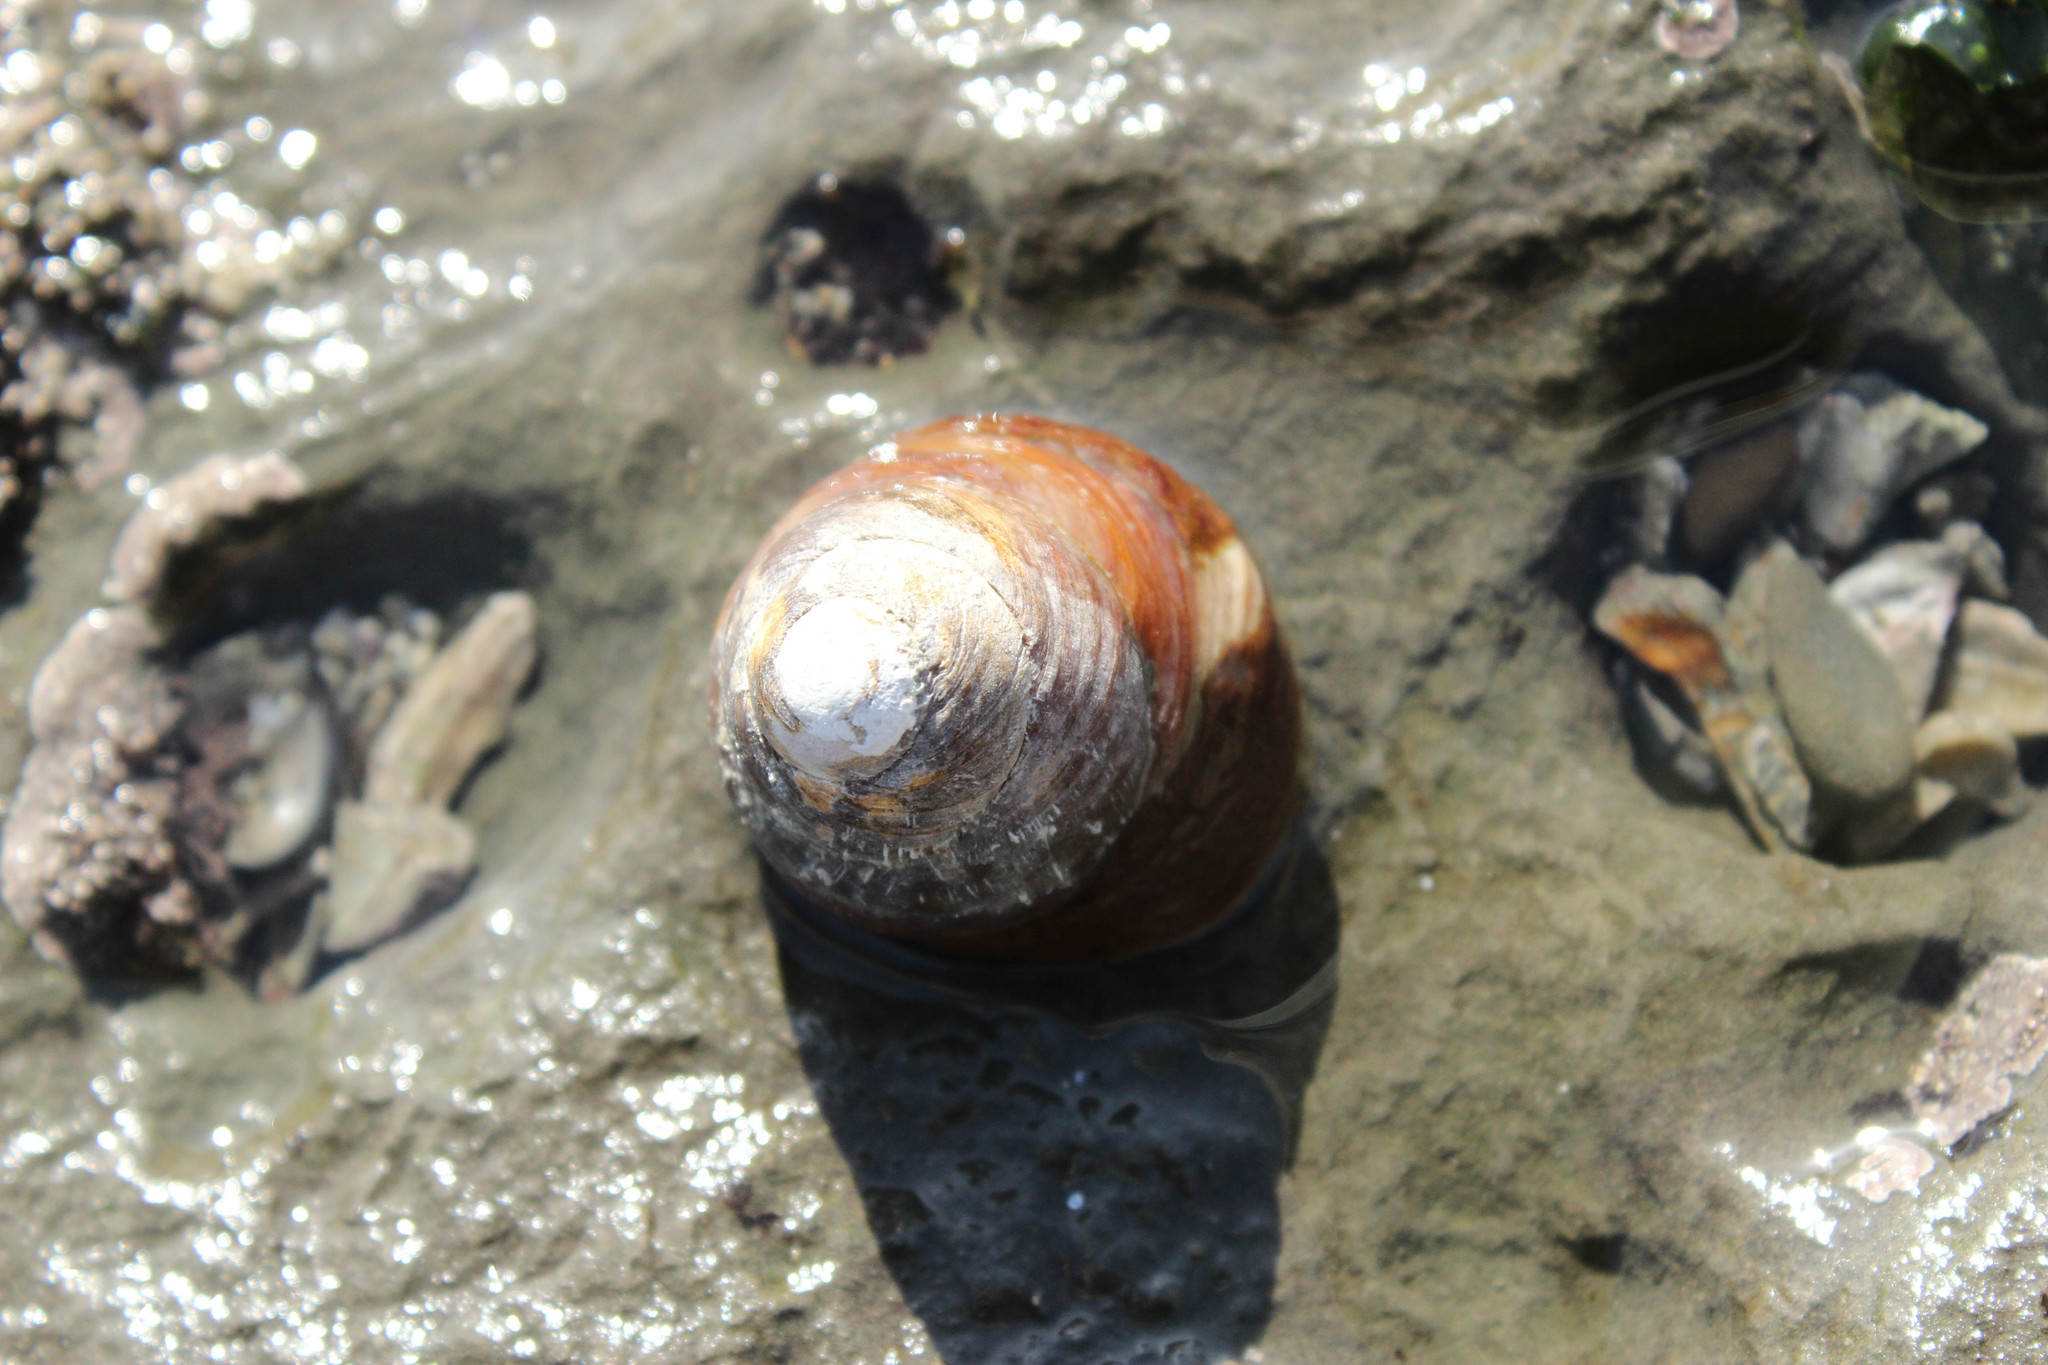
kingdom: Animalia
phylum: Mollusca
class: Gastropoda
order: Trochida
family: Tegulidae
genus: Tegula
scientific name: Tegula brunnea
